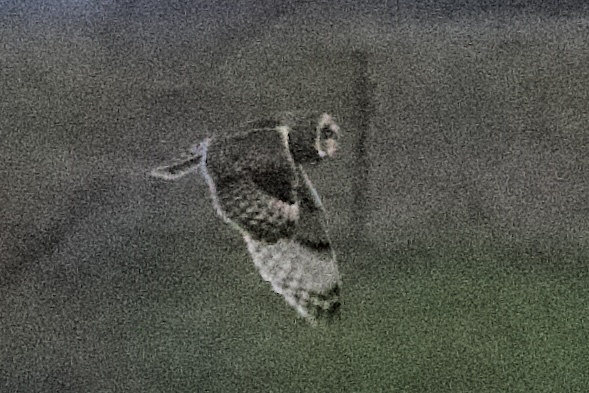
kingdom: Animalia
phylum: Chordata
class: Aves
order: Strigiformes
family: Strigidae
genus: Asio
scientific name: Asio flammeus
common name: Short-eared owl
